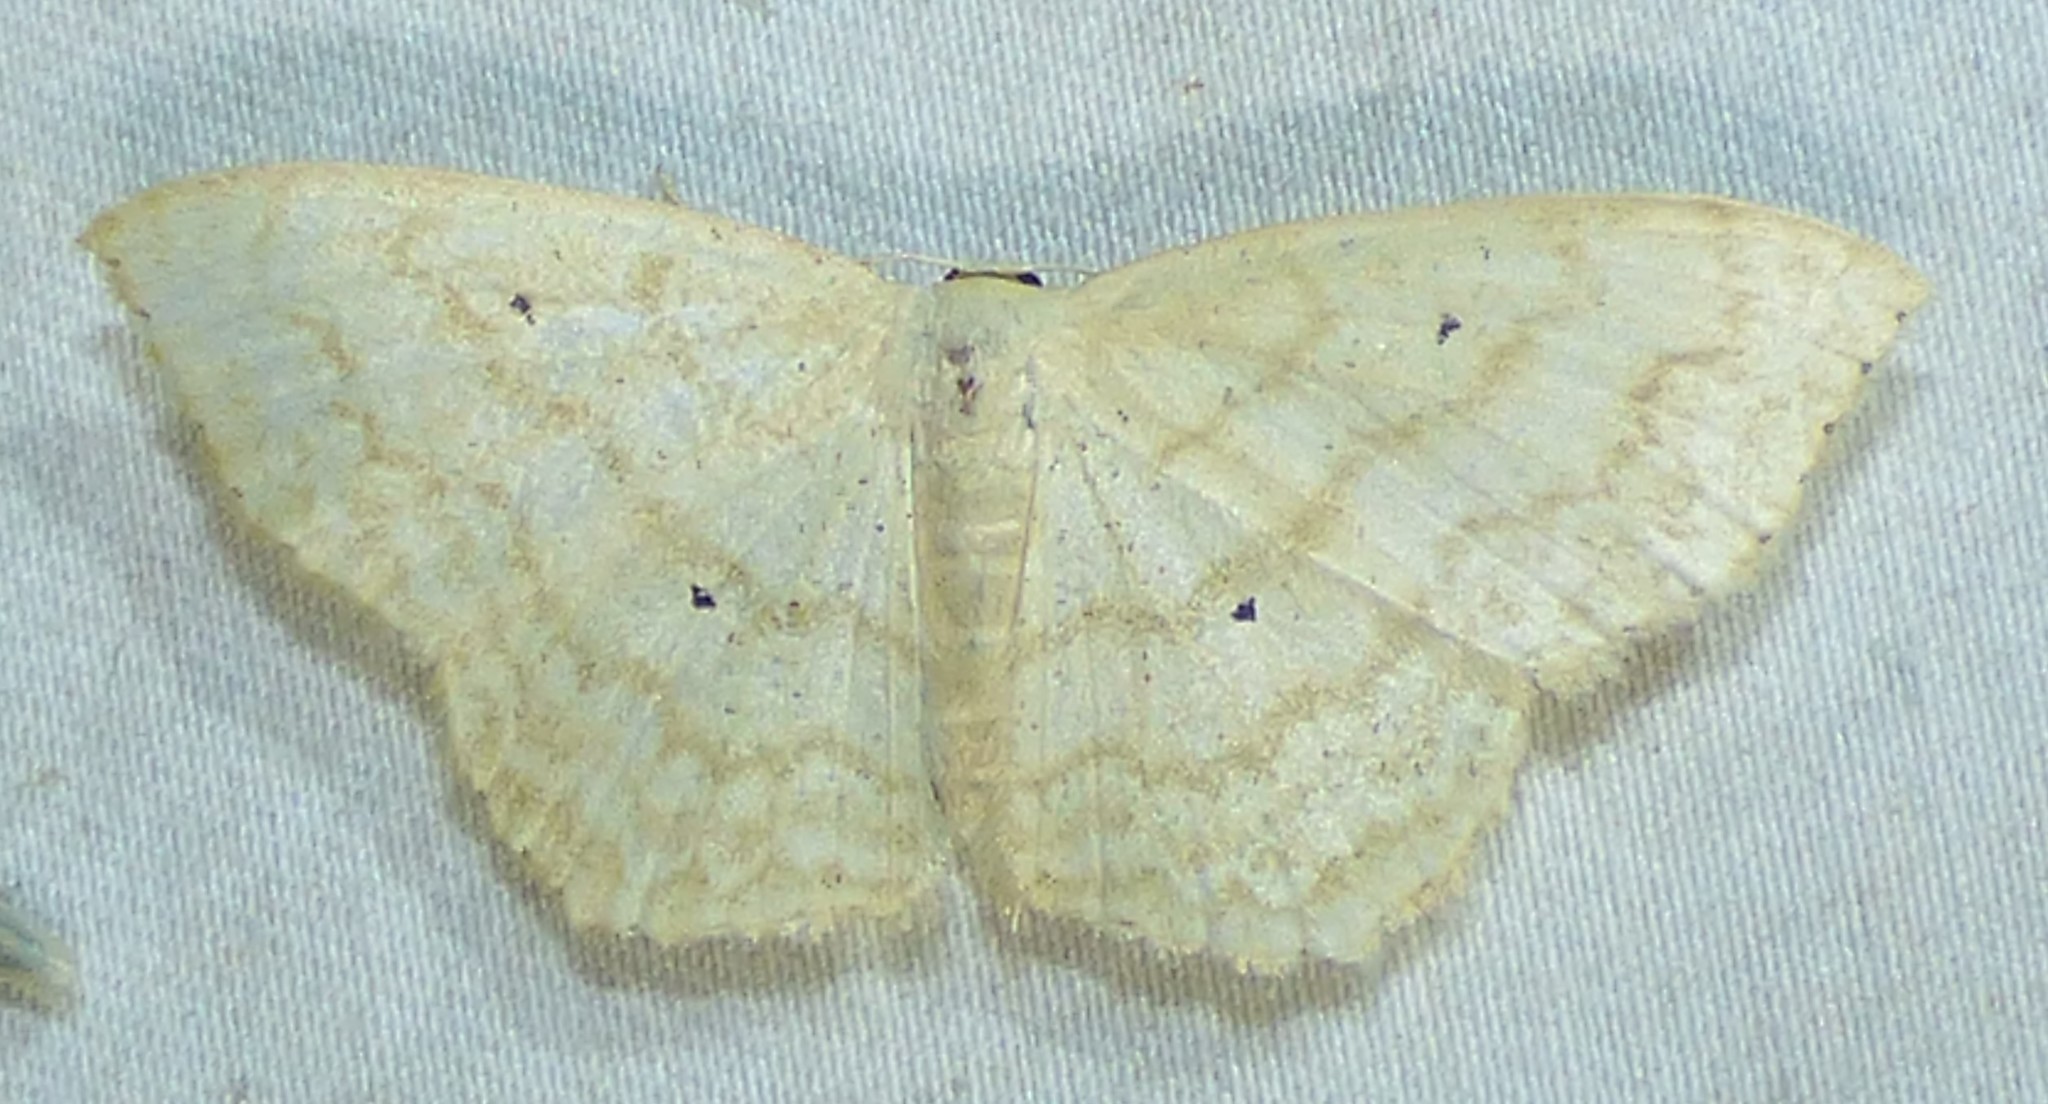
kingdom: Animalia
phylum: Arthropoda
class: Insecta
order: Lepidoptera
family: Geometridae
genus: Scopula
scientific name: Scopula limboundata
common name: Large lace border
